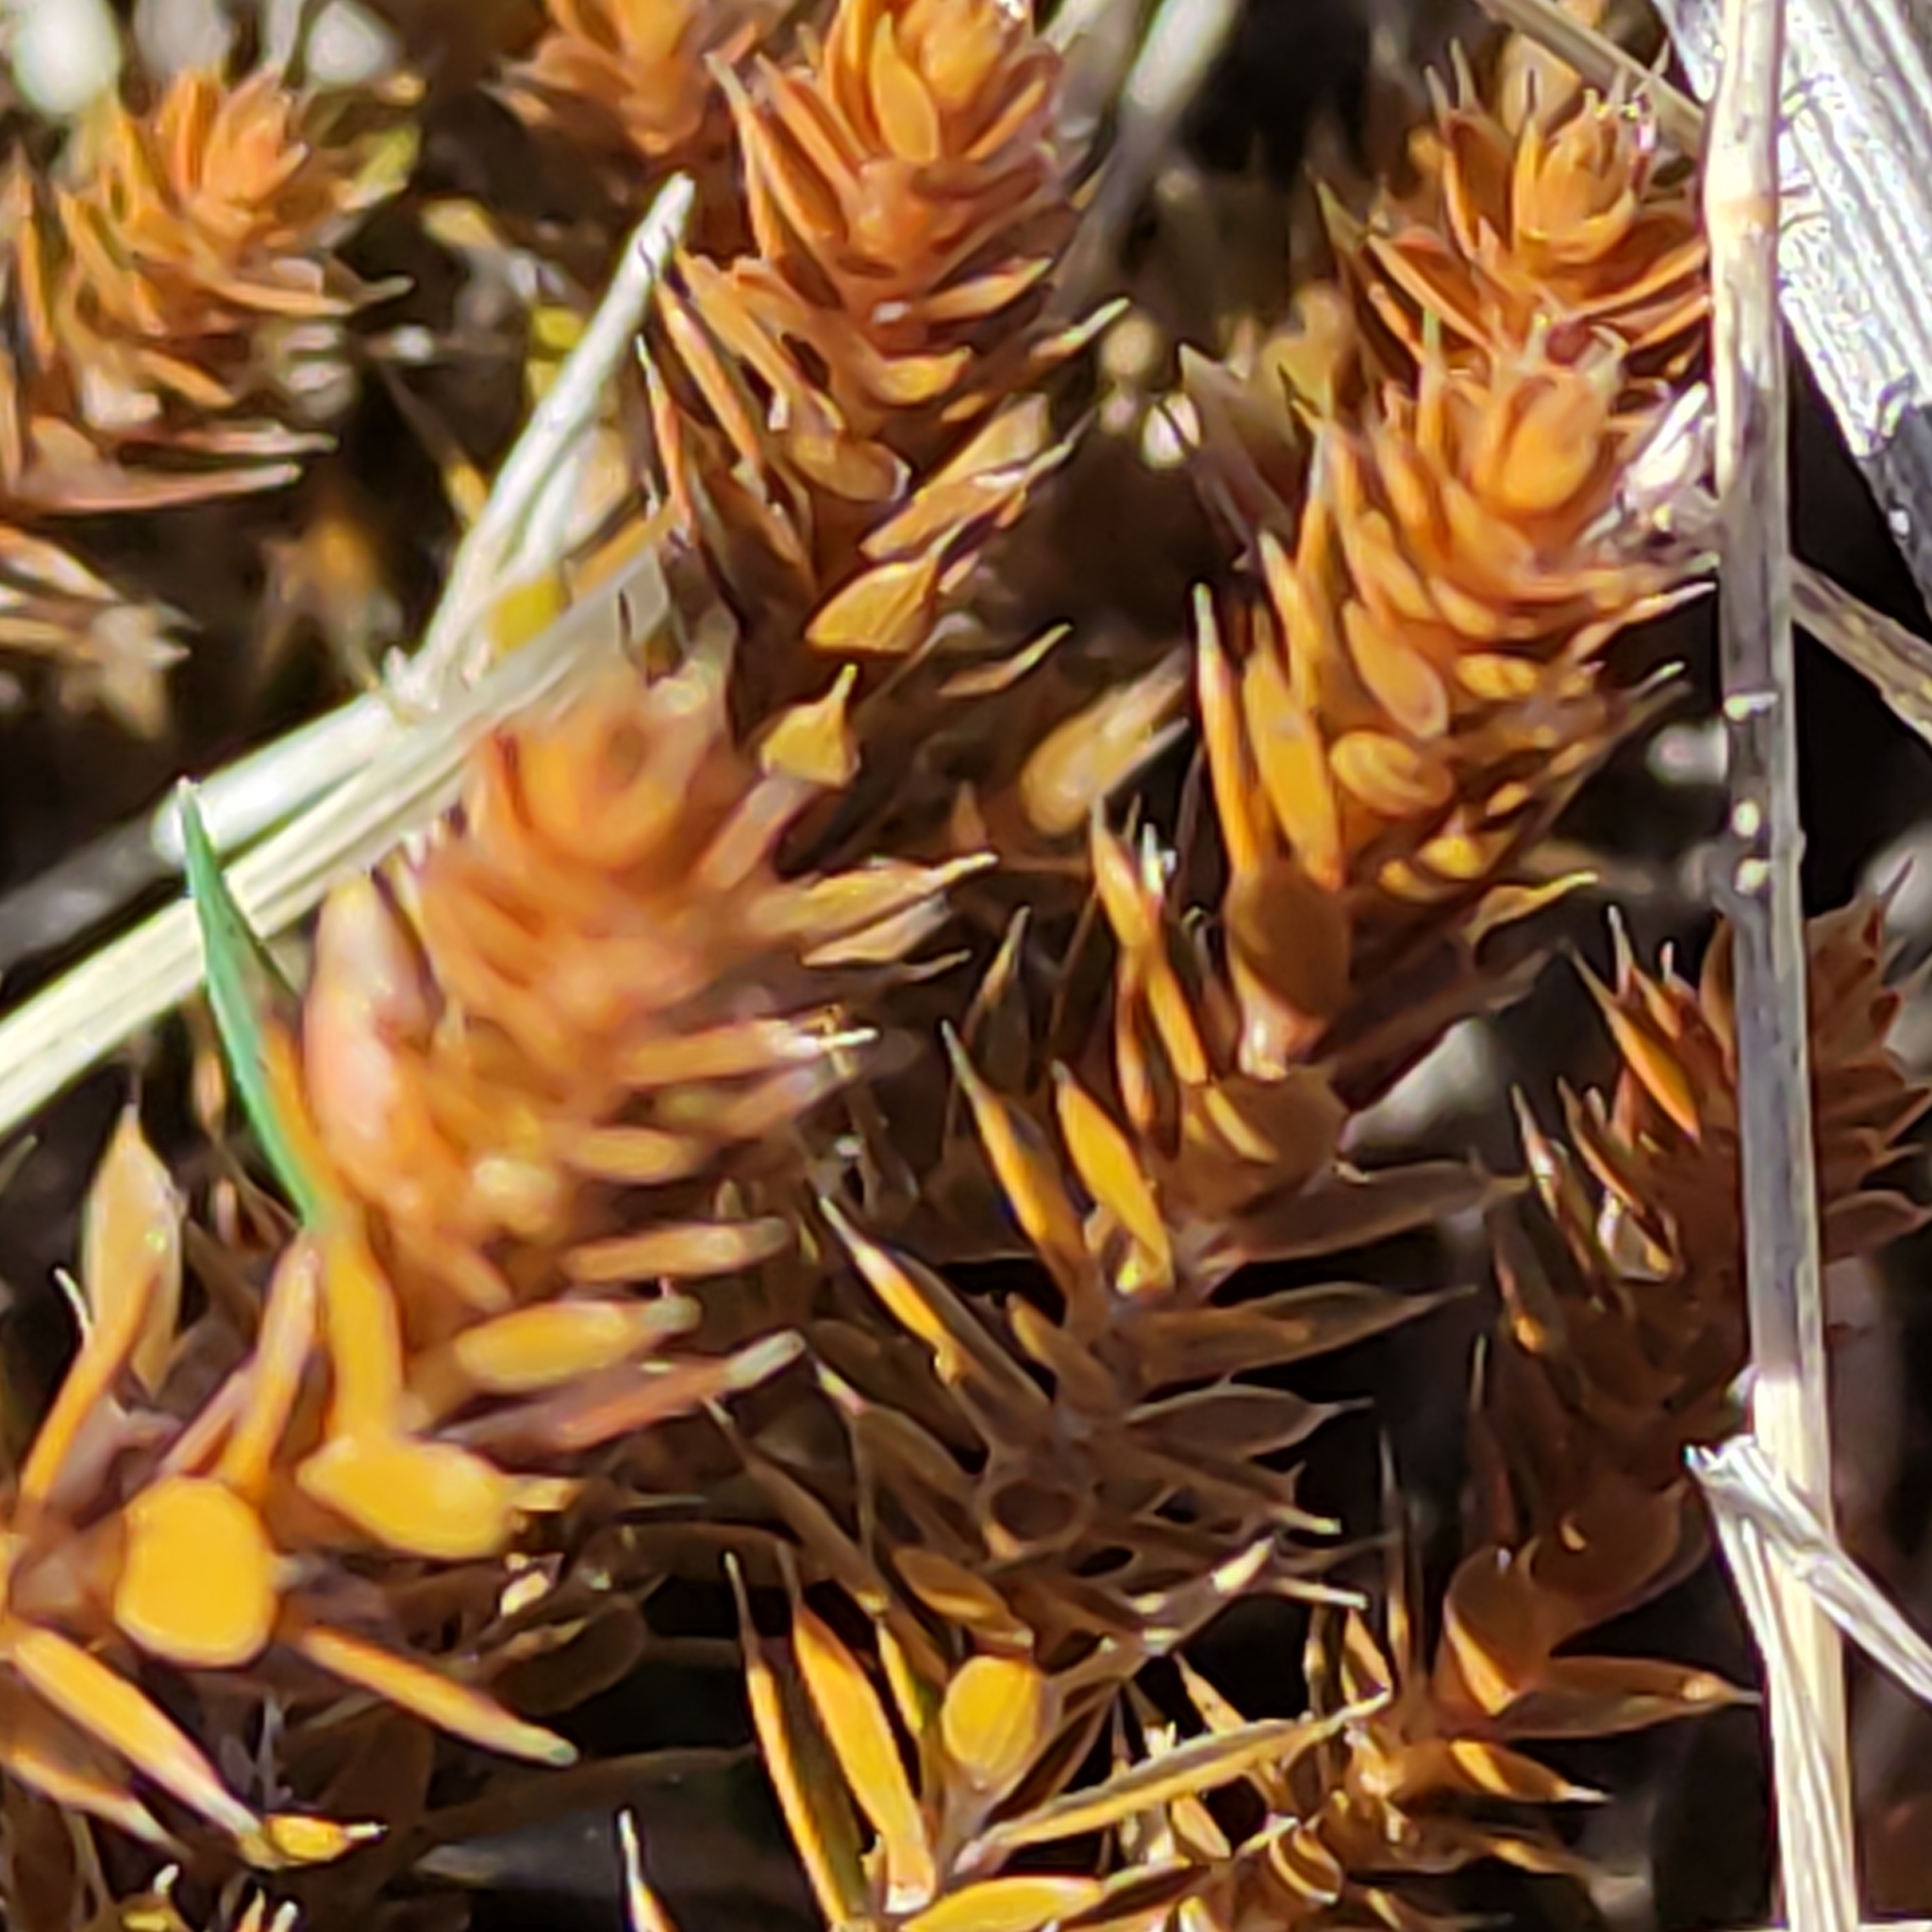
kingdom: Plantae
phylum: Tracheophyta
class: Magnoliopsida
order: Ericales
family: Ericaceae
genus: Styphelia
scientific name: Styphelia nesophila
